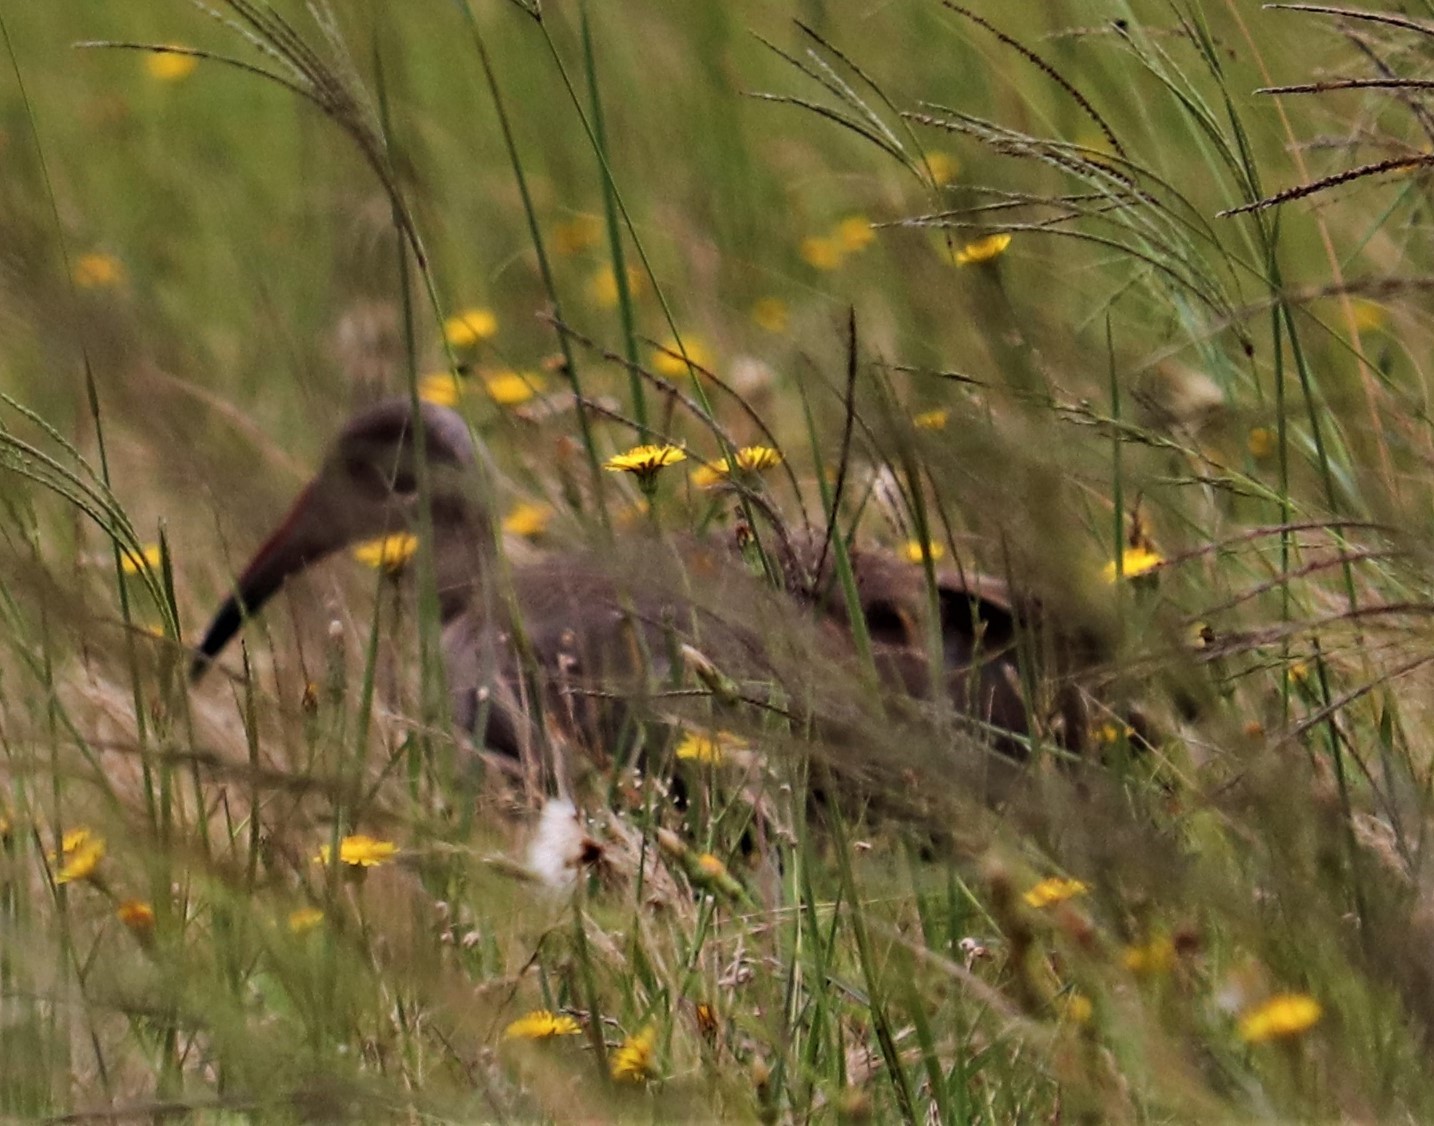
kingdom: Animalia
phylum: Chordata
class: Aves
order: Pelecaniformes
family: Threskiornithidae
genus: Bostrychia
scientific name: Bostrychia hagedash
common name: Hadada ibis
